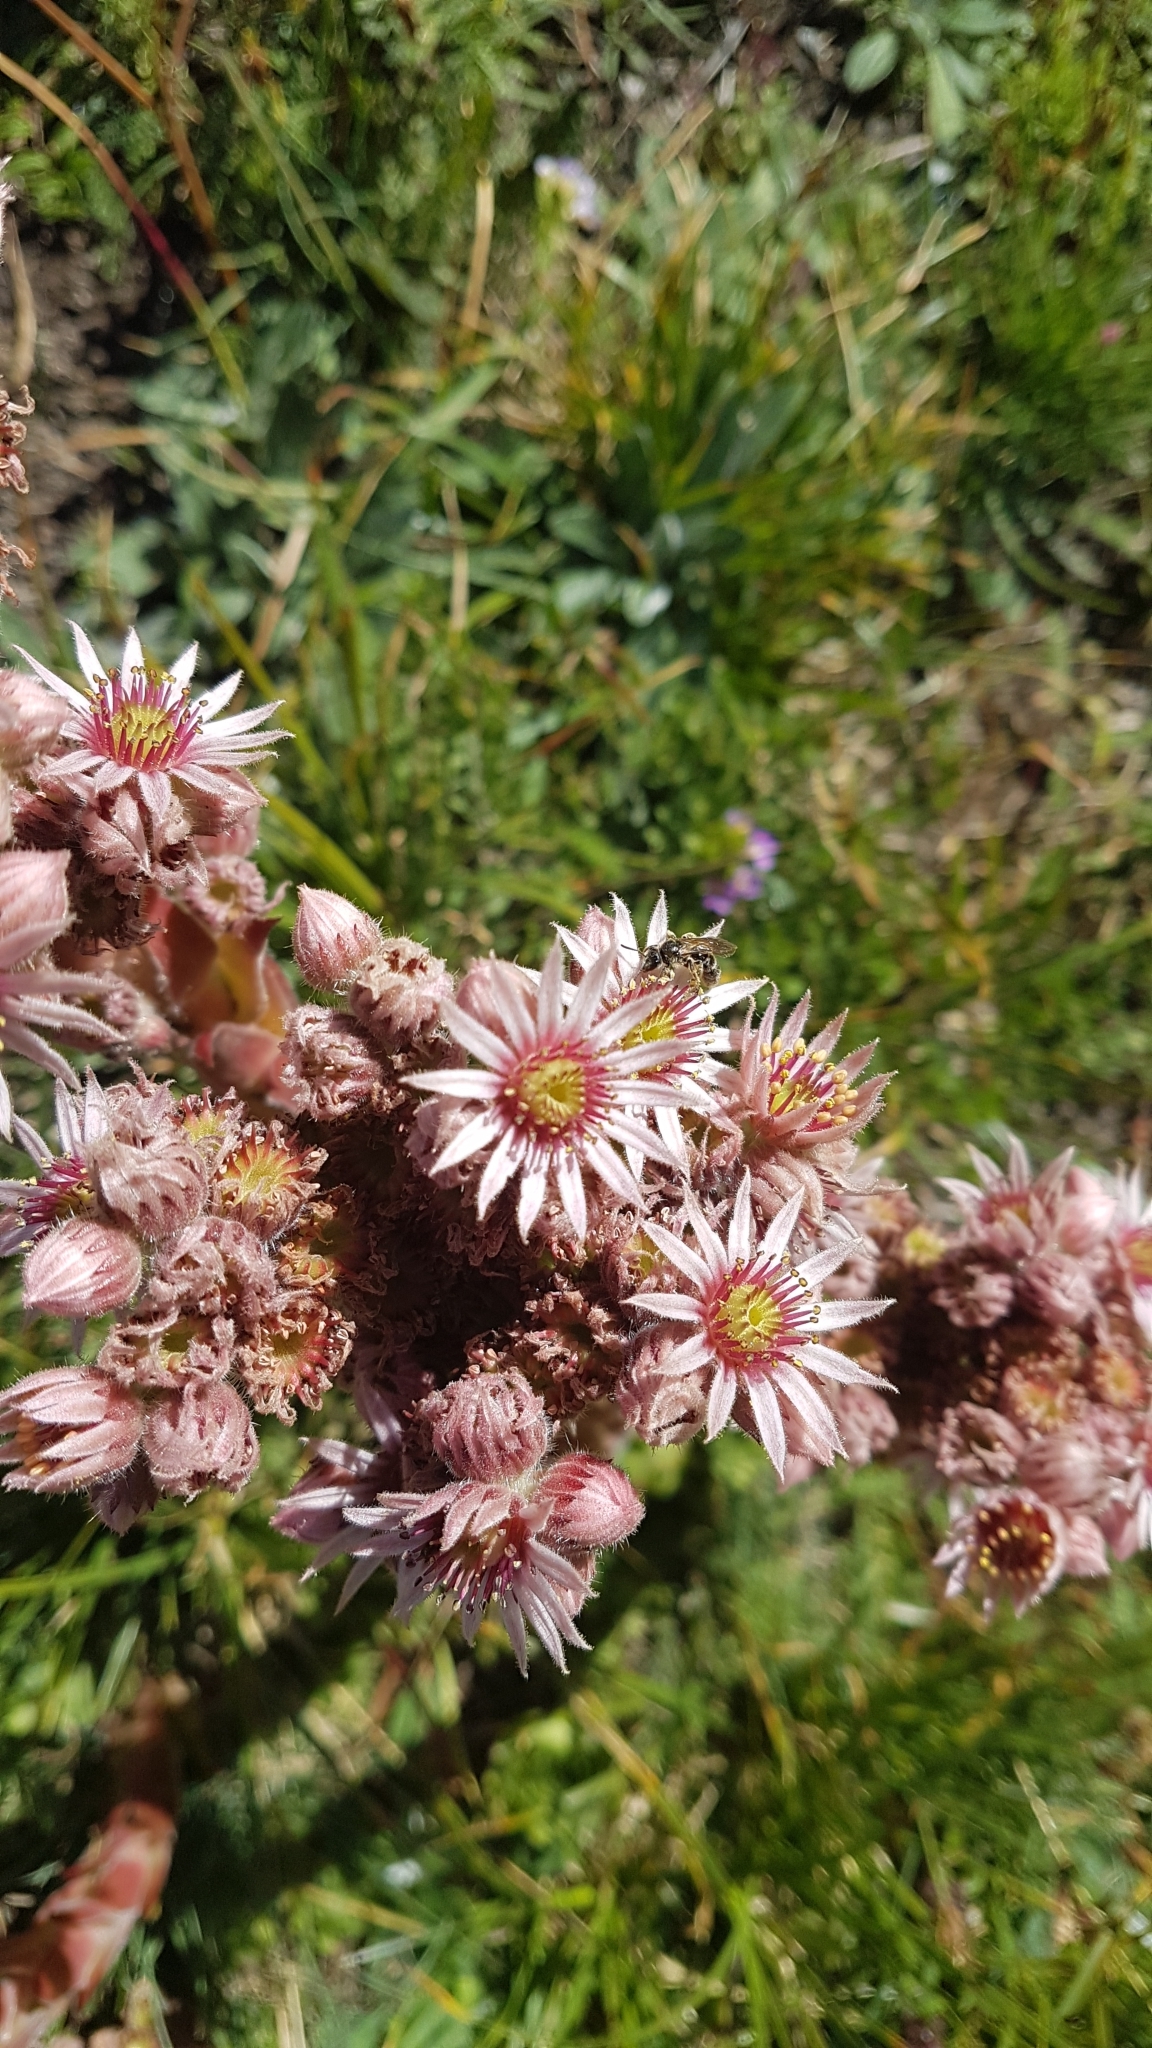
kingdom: Plantae
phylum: Tracheophyta
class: Magnoliopsida
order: Saxifragales
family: Crassulaceae
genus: Sempervivum
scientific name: Sempervivum tectorum
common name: House-leek
